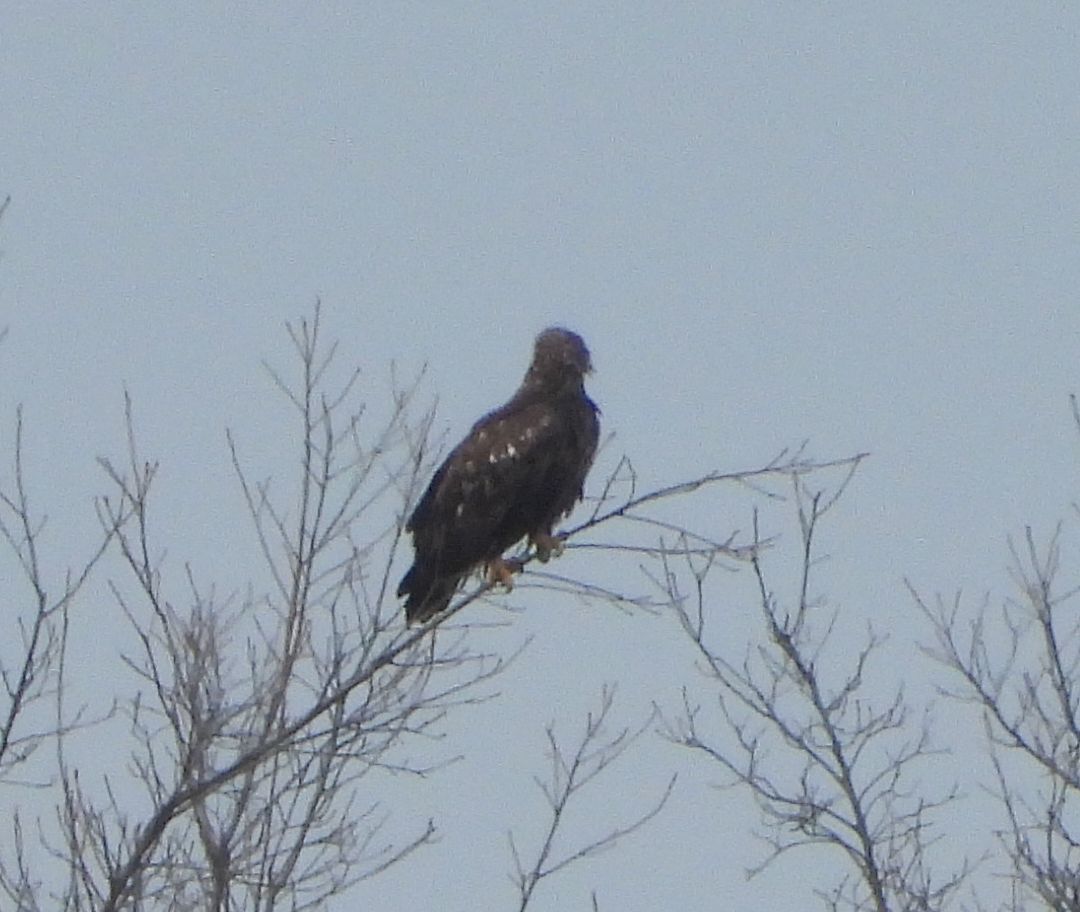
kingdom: Animalia
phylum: Chordata
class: Aves
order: Accipitriformes
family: Accipitridae
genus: Haliaeetus
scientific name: Haliaeetus leucocephalus
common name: Bald eagle
